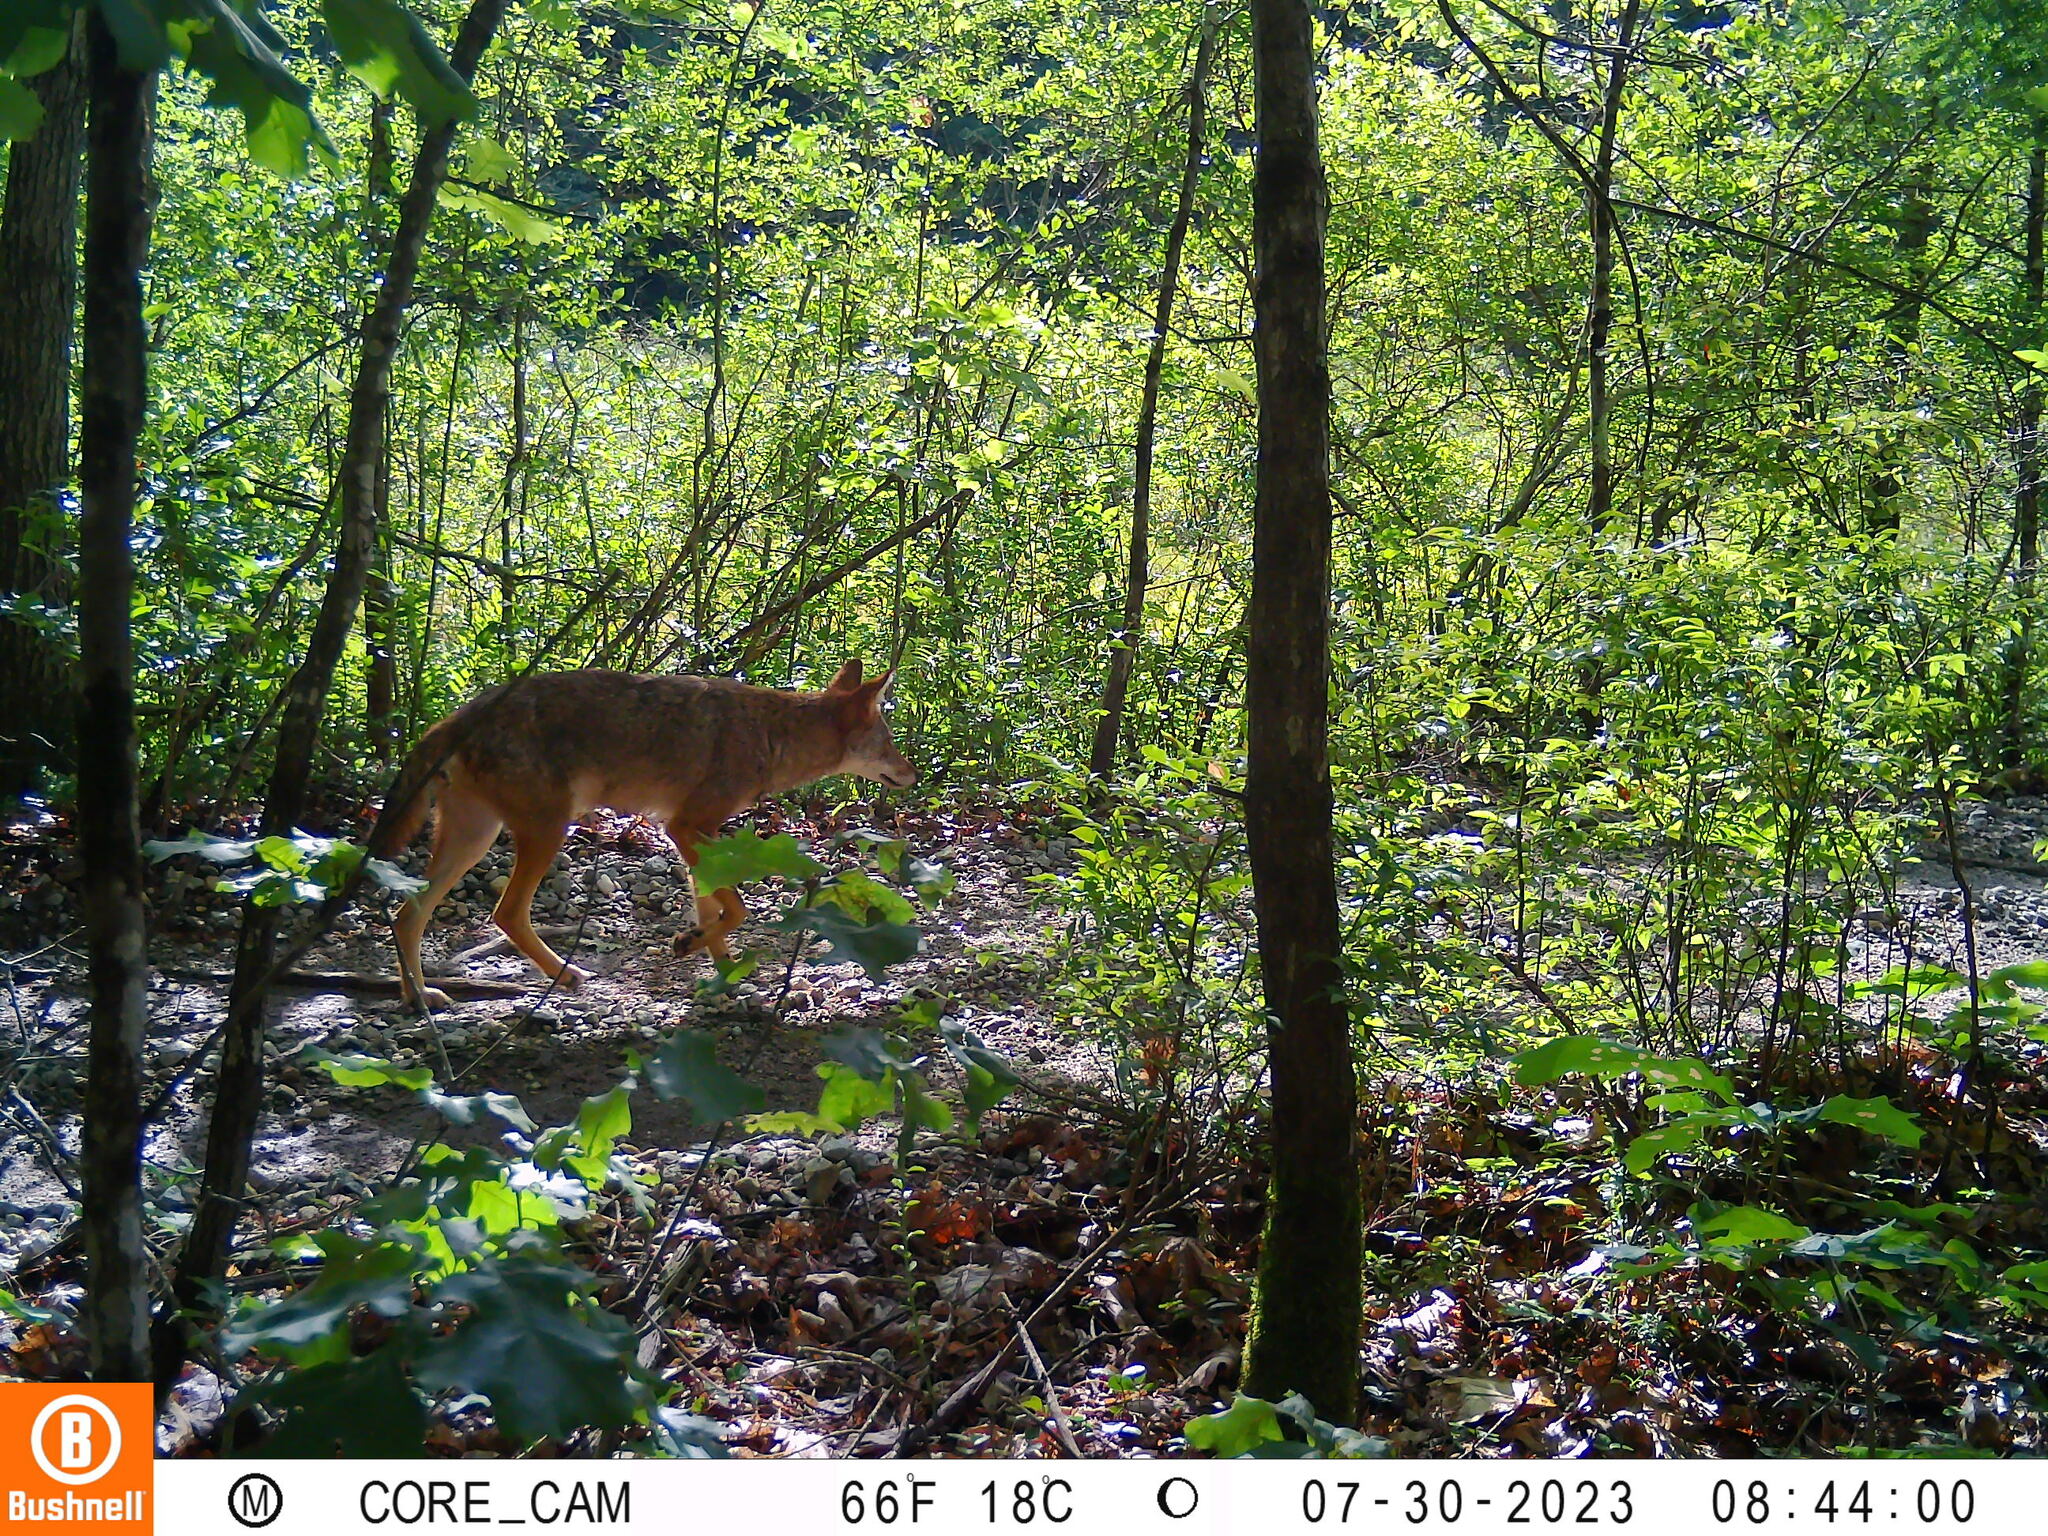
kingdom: Animalia
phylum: Chordata
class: Mammalia
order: Carnivora
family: Canidae
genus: Canis
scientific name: Canis latrans
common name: Coyote
